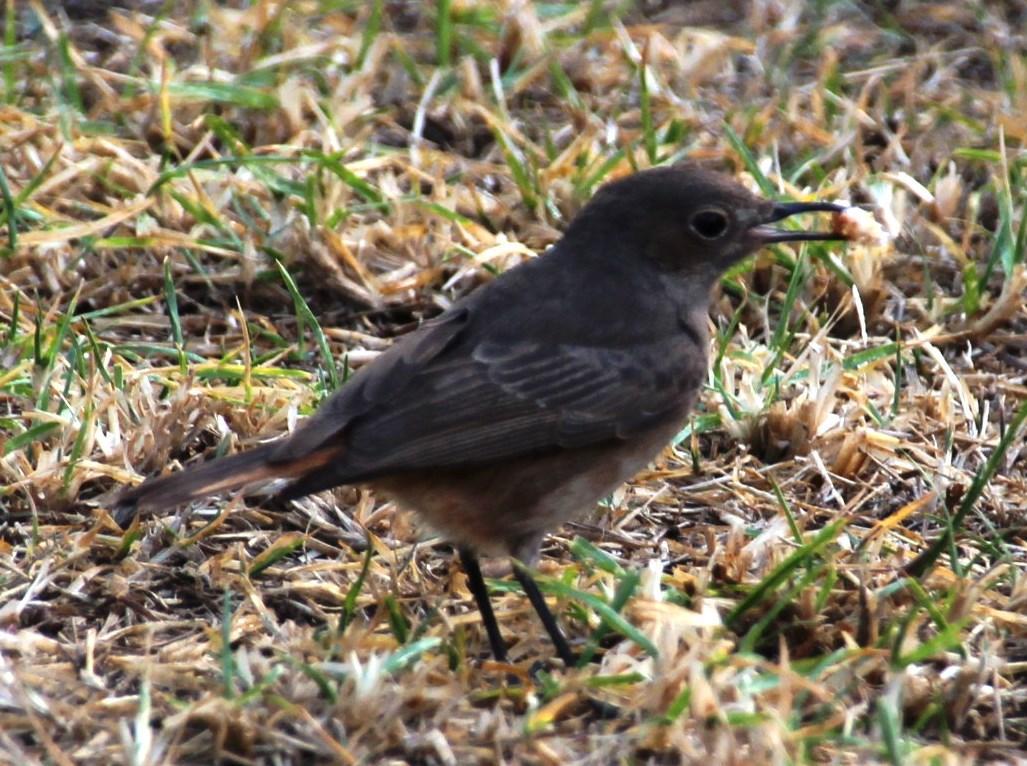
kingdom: Animalia
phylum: Chordata
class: Aves
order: Passeriformes
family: Muscicapidae
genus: Oenanthe
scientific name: Oenanthe familiaris
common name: Familiar chat
